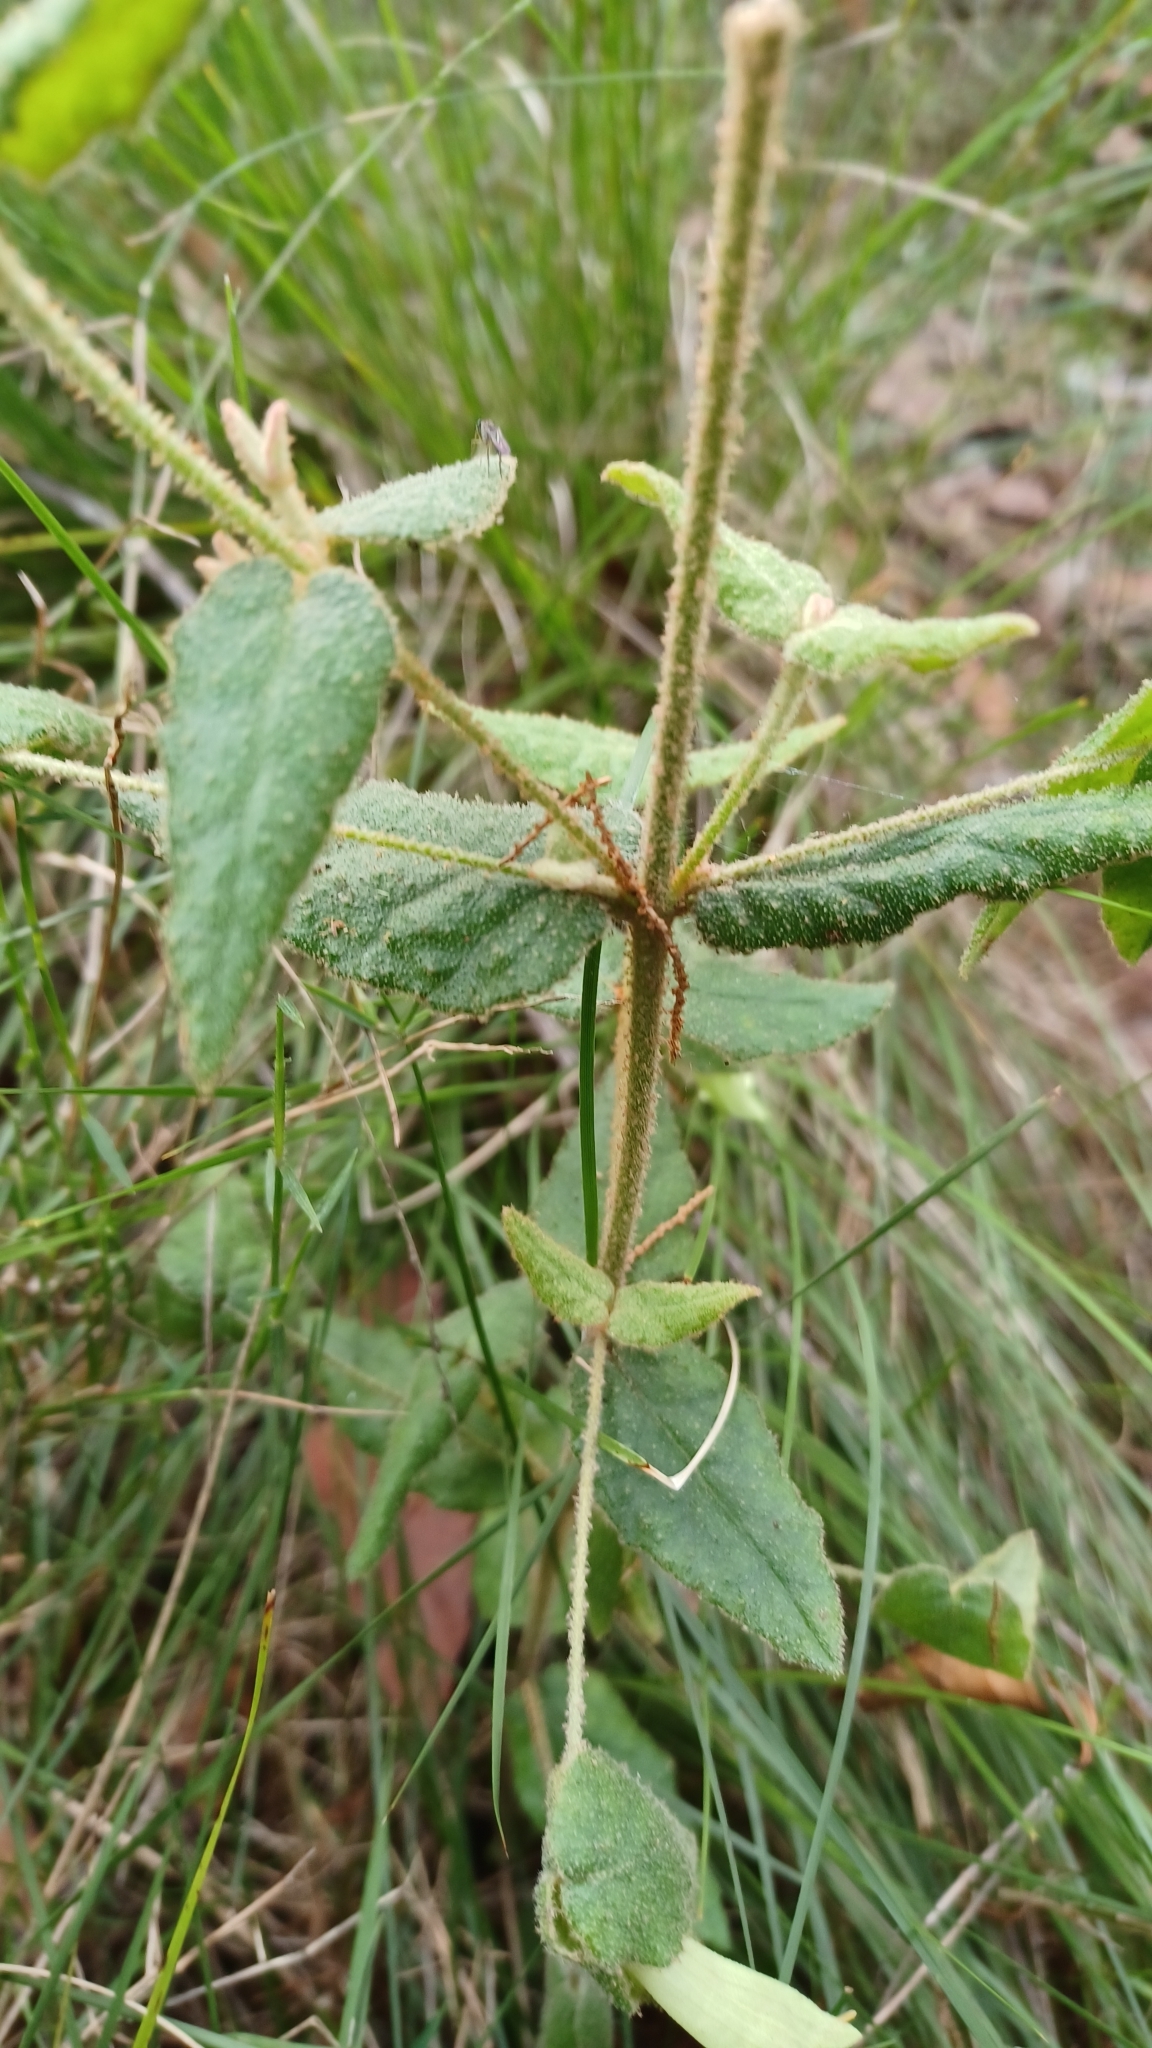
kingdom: Plantae
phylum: Tracheophyta
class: Magnoliopsida
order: Sapindales
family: Rutaceae
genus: Correa
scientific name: Correa reflexa
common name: Common correa
